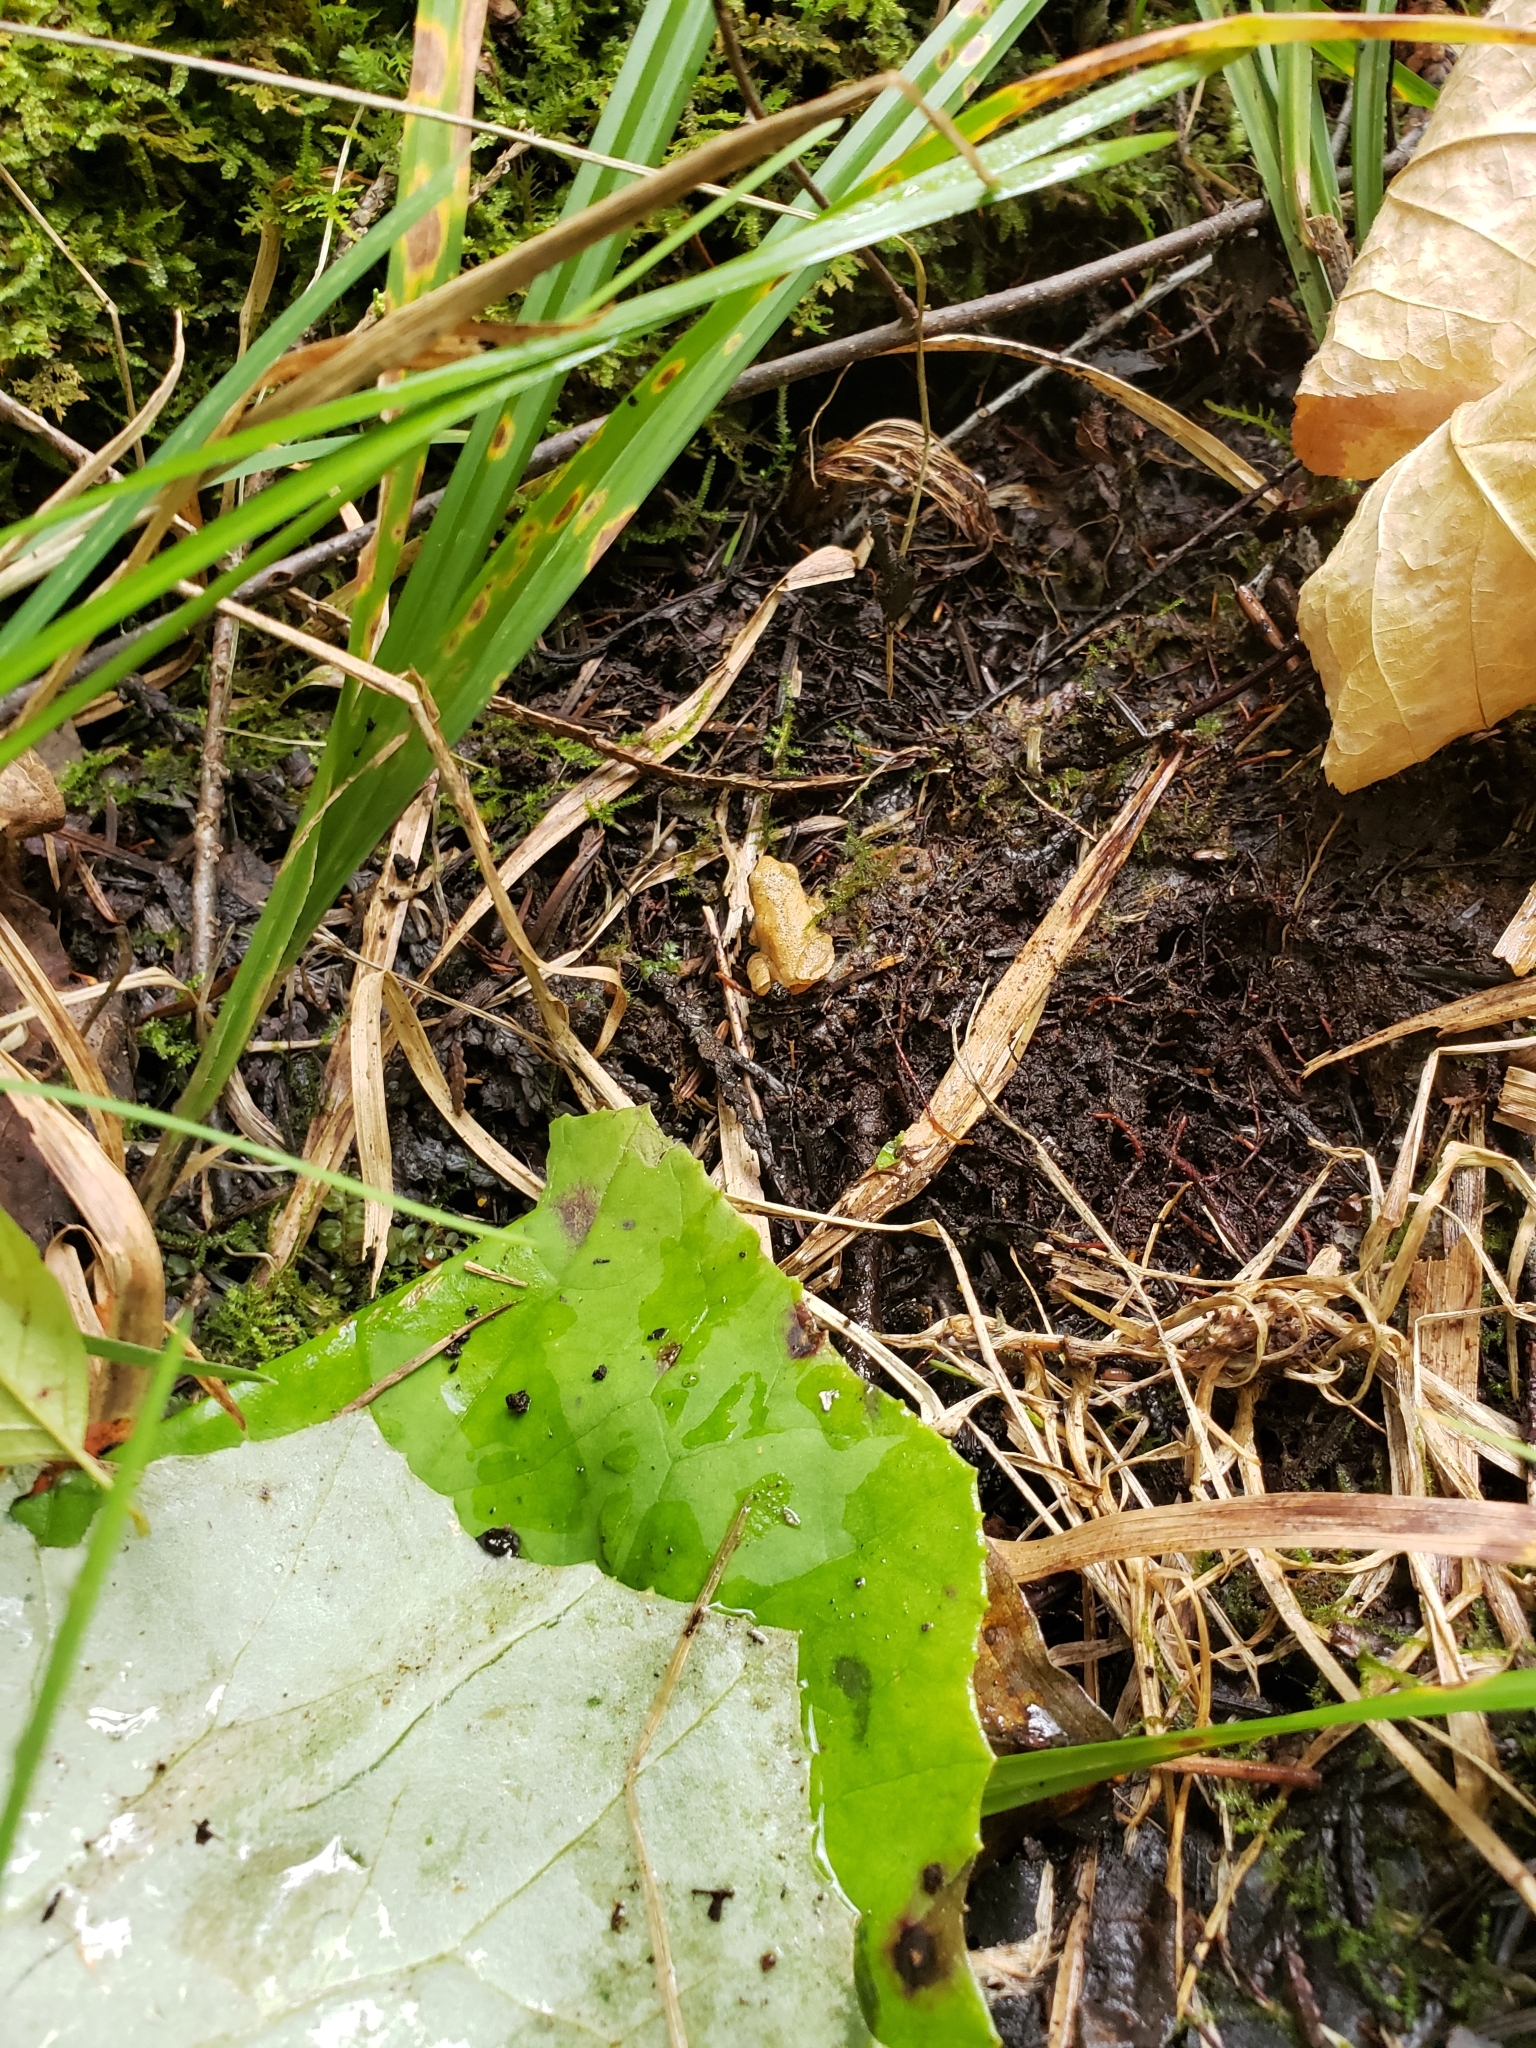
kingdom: Animalia
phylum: Chordata
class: Amphibia
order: Anura
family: Hylidae
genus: Pseudacris
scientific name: Pseudacris crucifer
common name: Spring peeper
